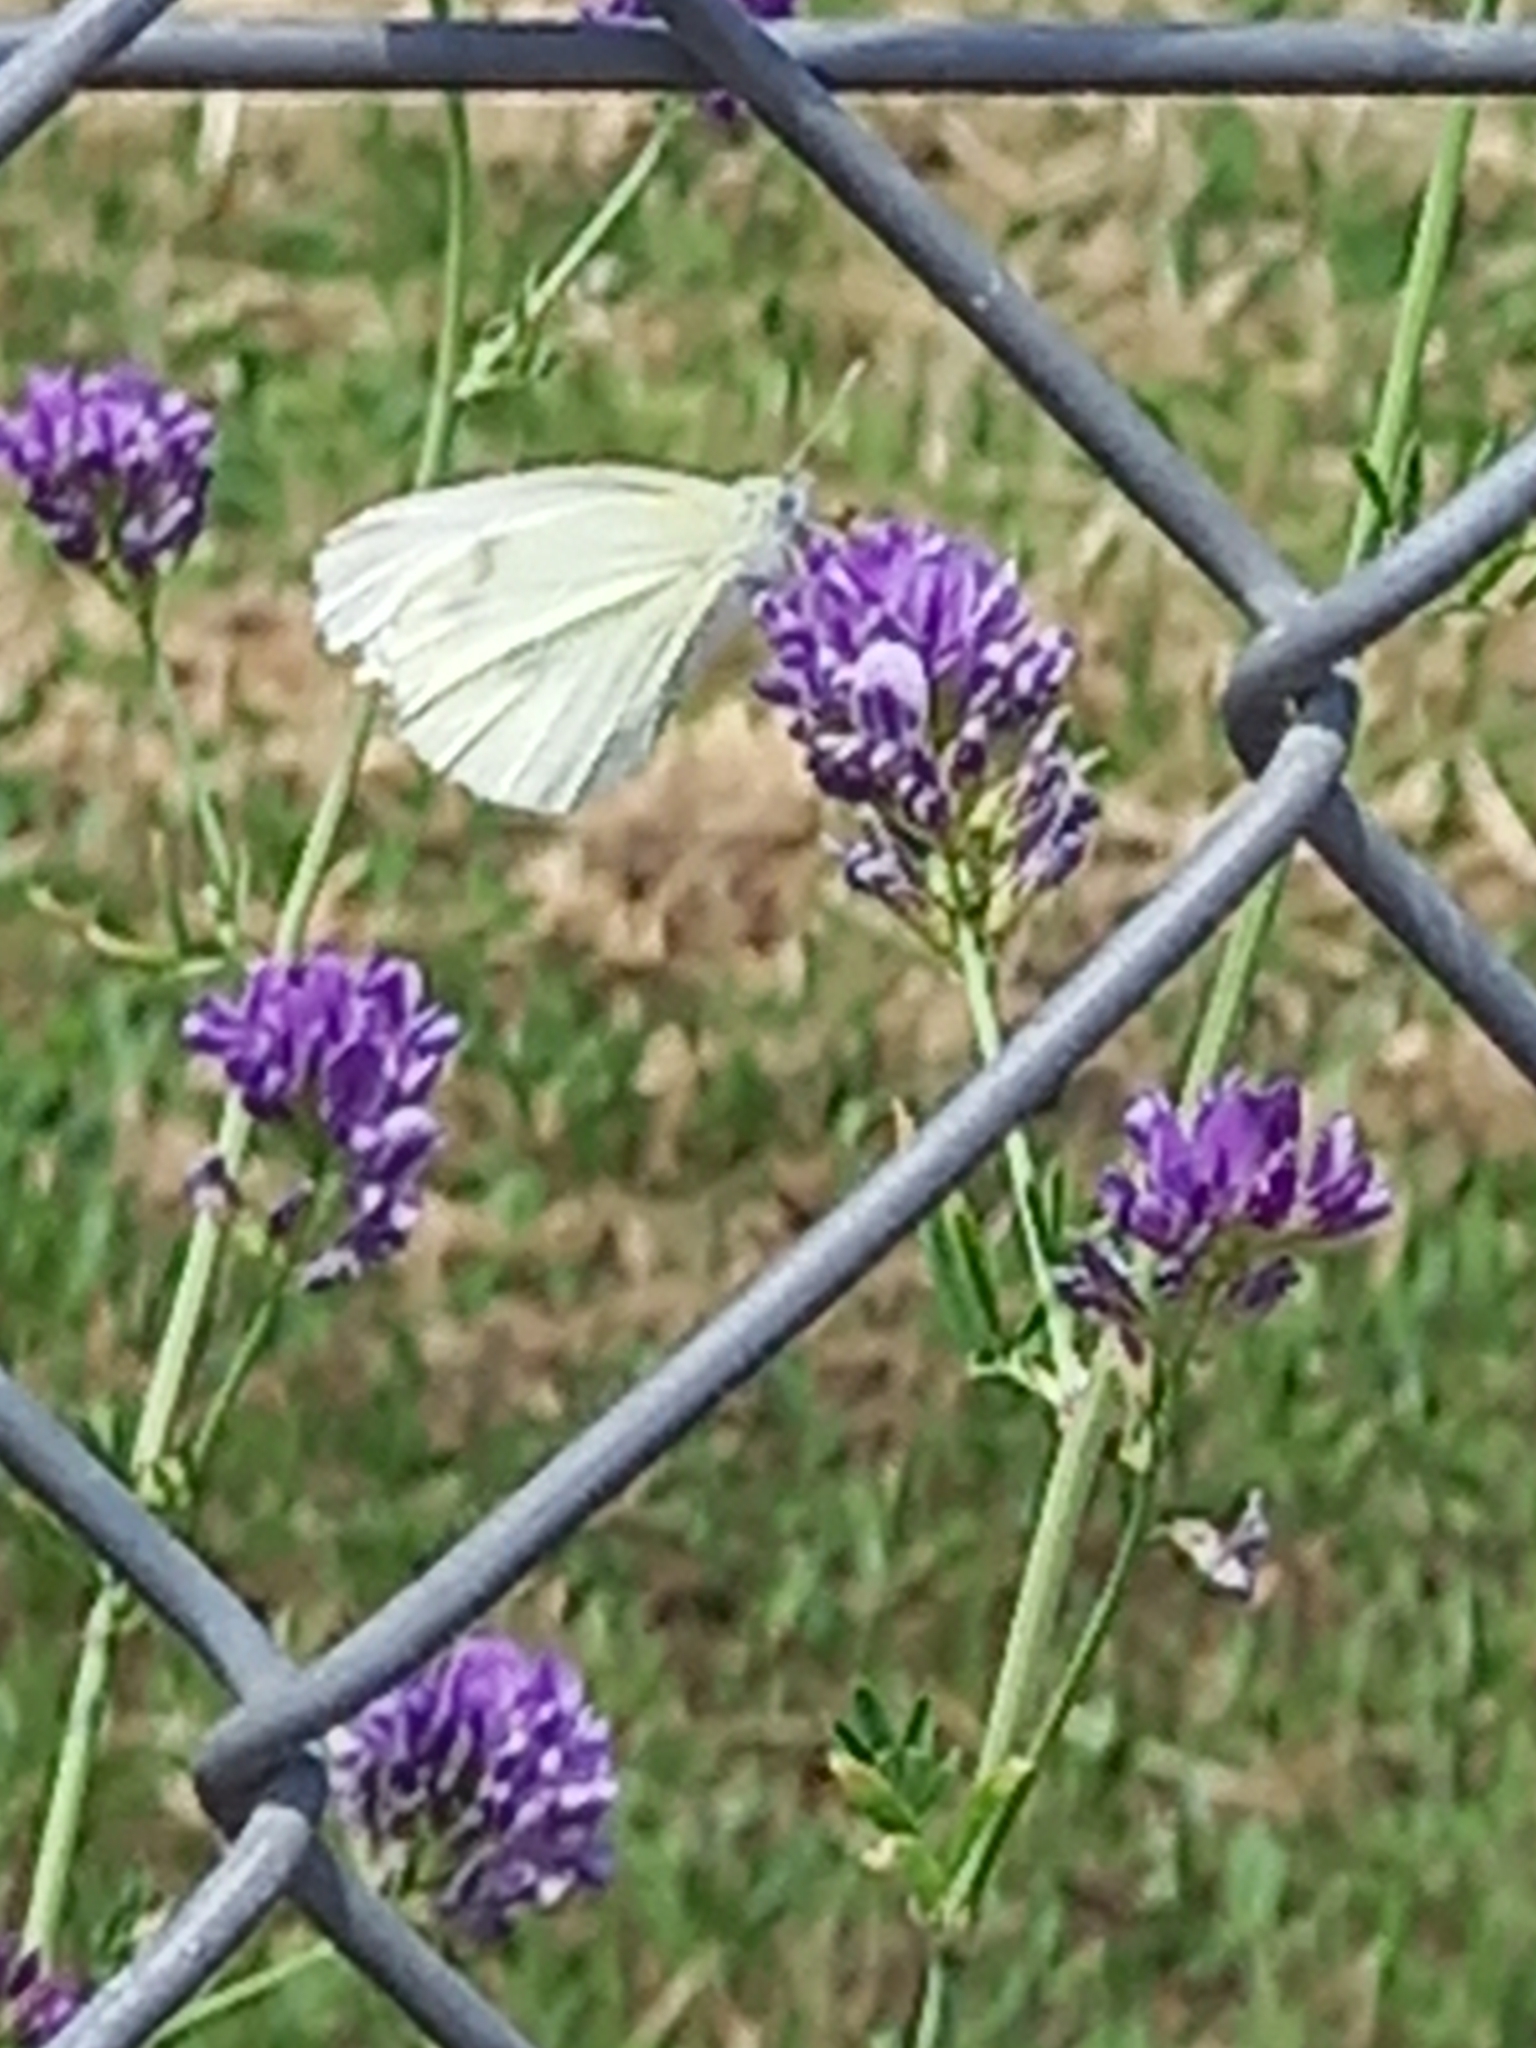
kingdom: Animalia
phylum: Arthropoda
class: Insecta
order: Lepidoptera
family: Pieridae
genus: Pieris
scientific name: Pieris rapae
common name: Small white
